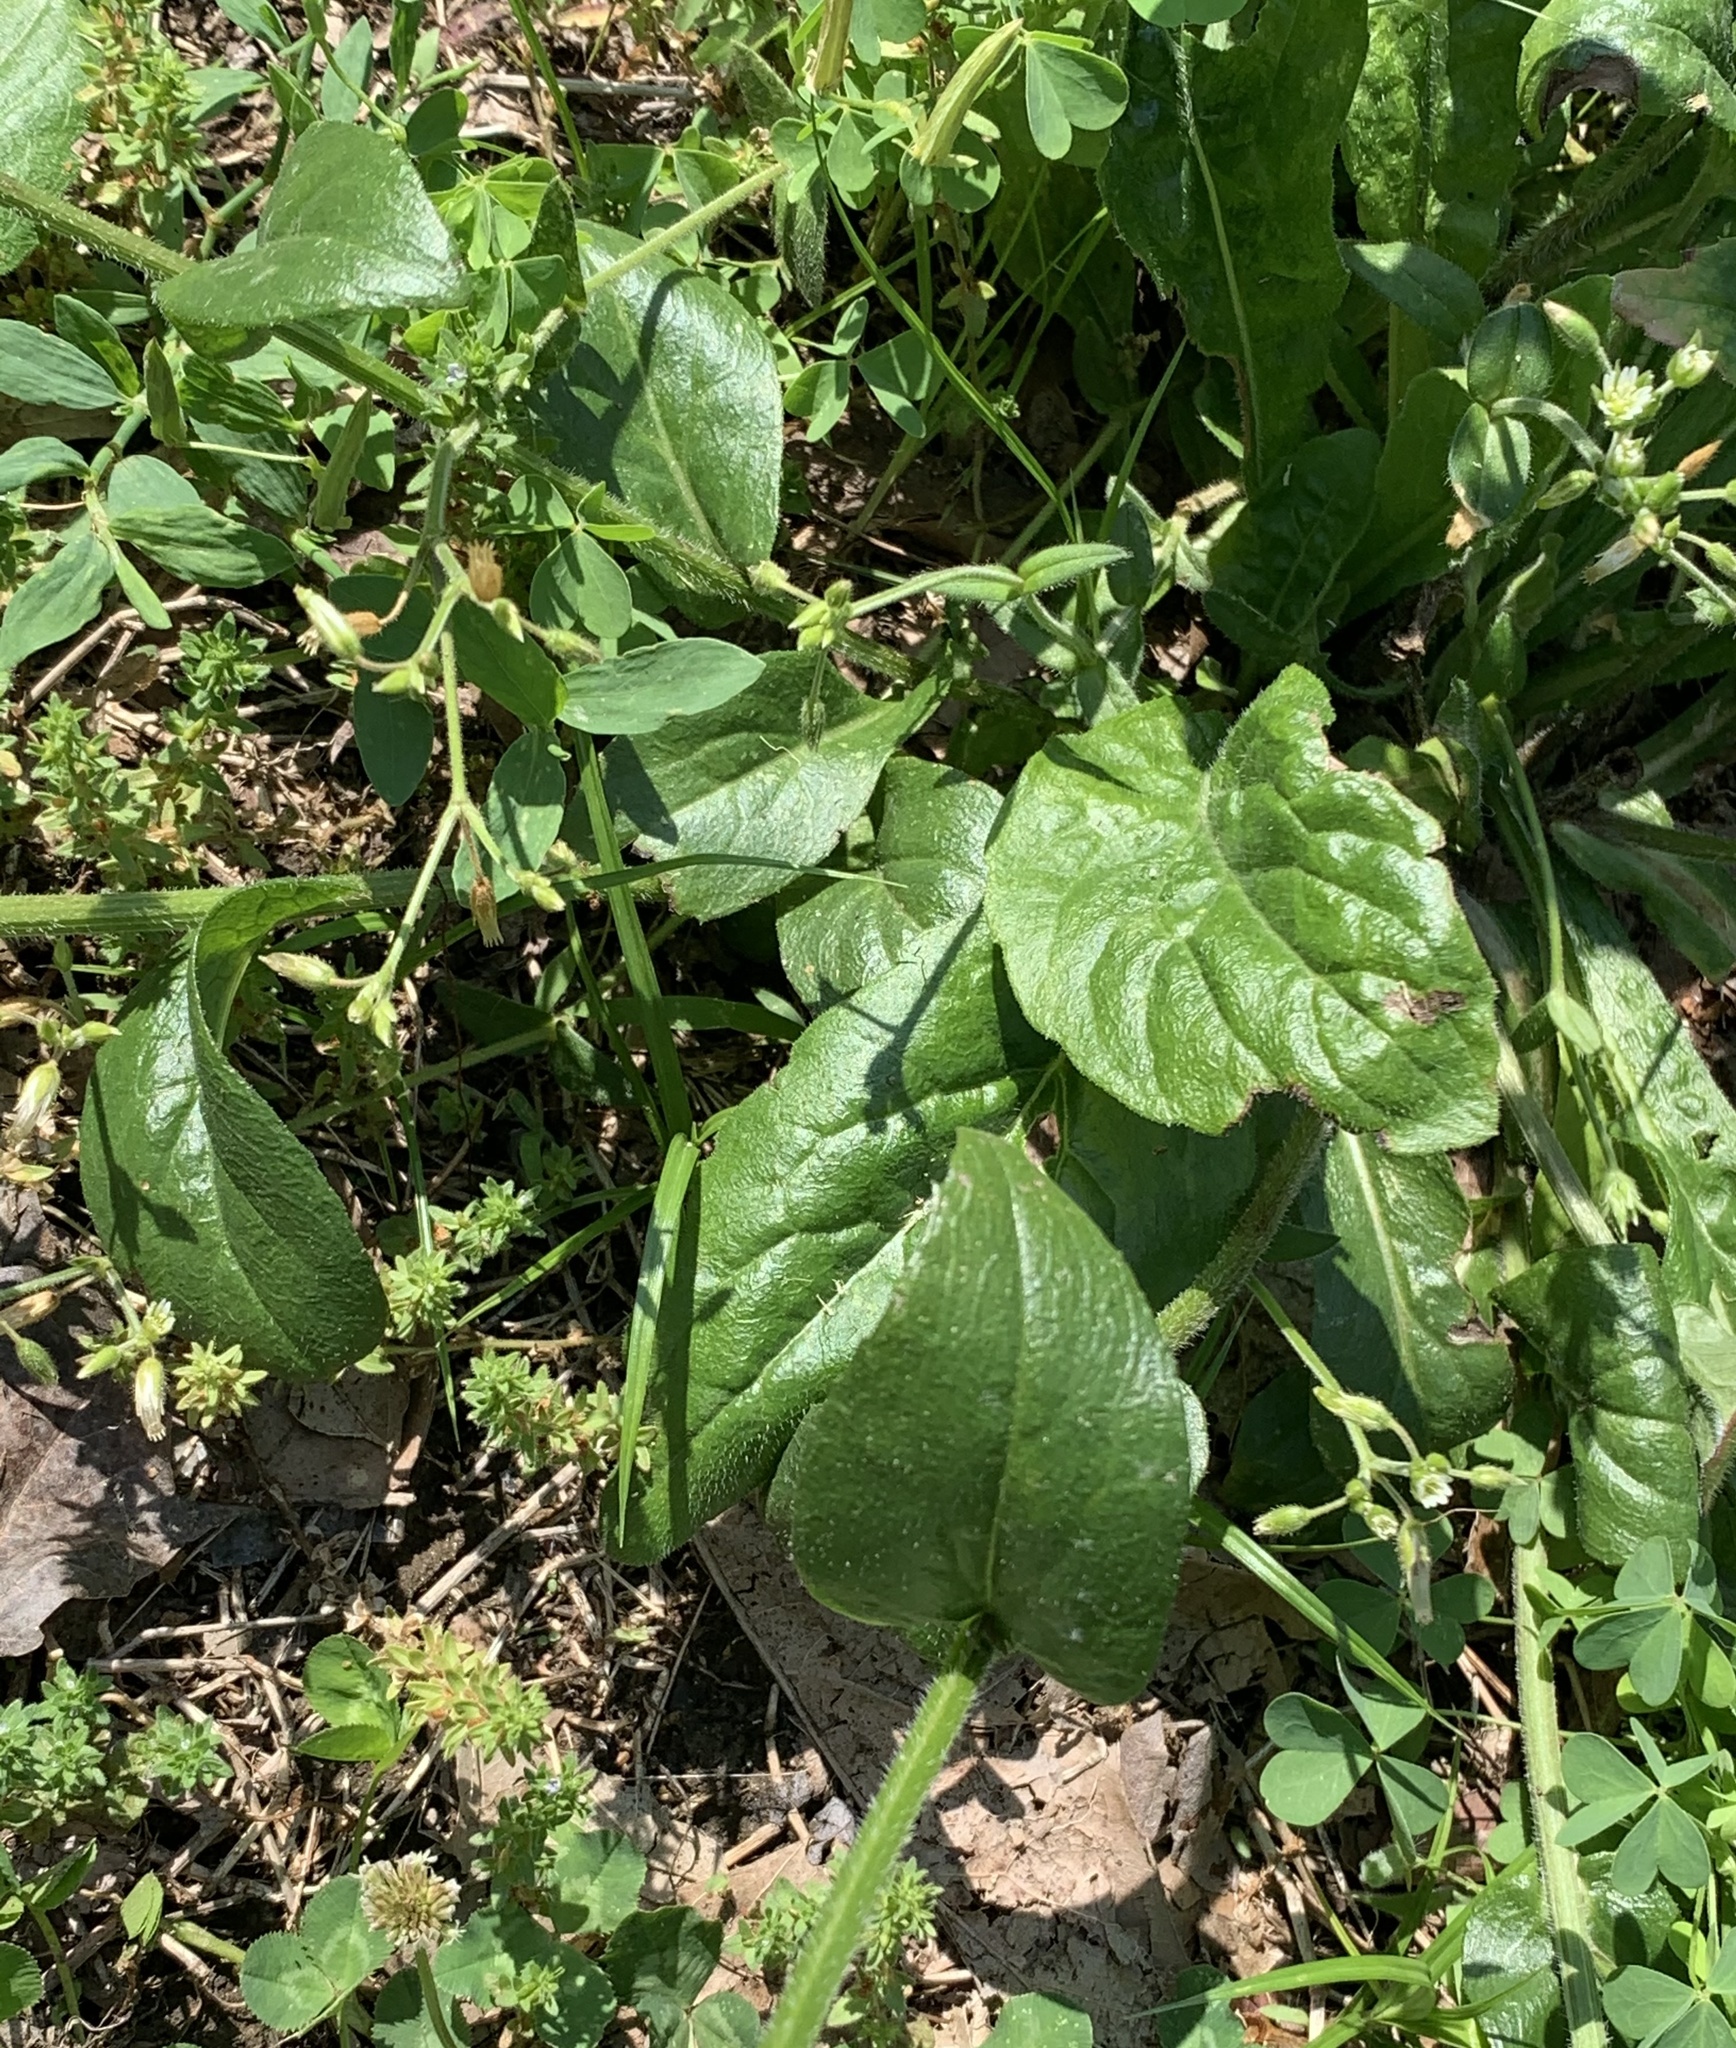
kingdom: Plantae
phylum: Tracheophyta
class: Magnoliopsida
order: Asterales
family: Asteraceae
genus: Erigeron
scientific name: Erigeron philadelphicus
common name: Robin's-plantain
